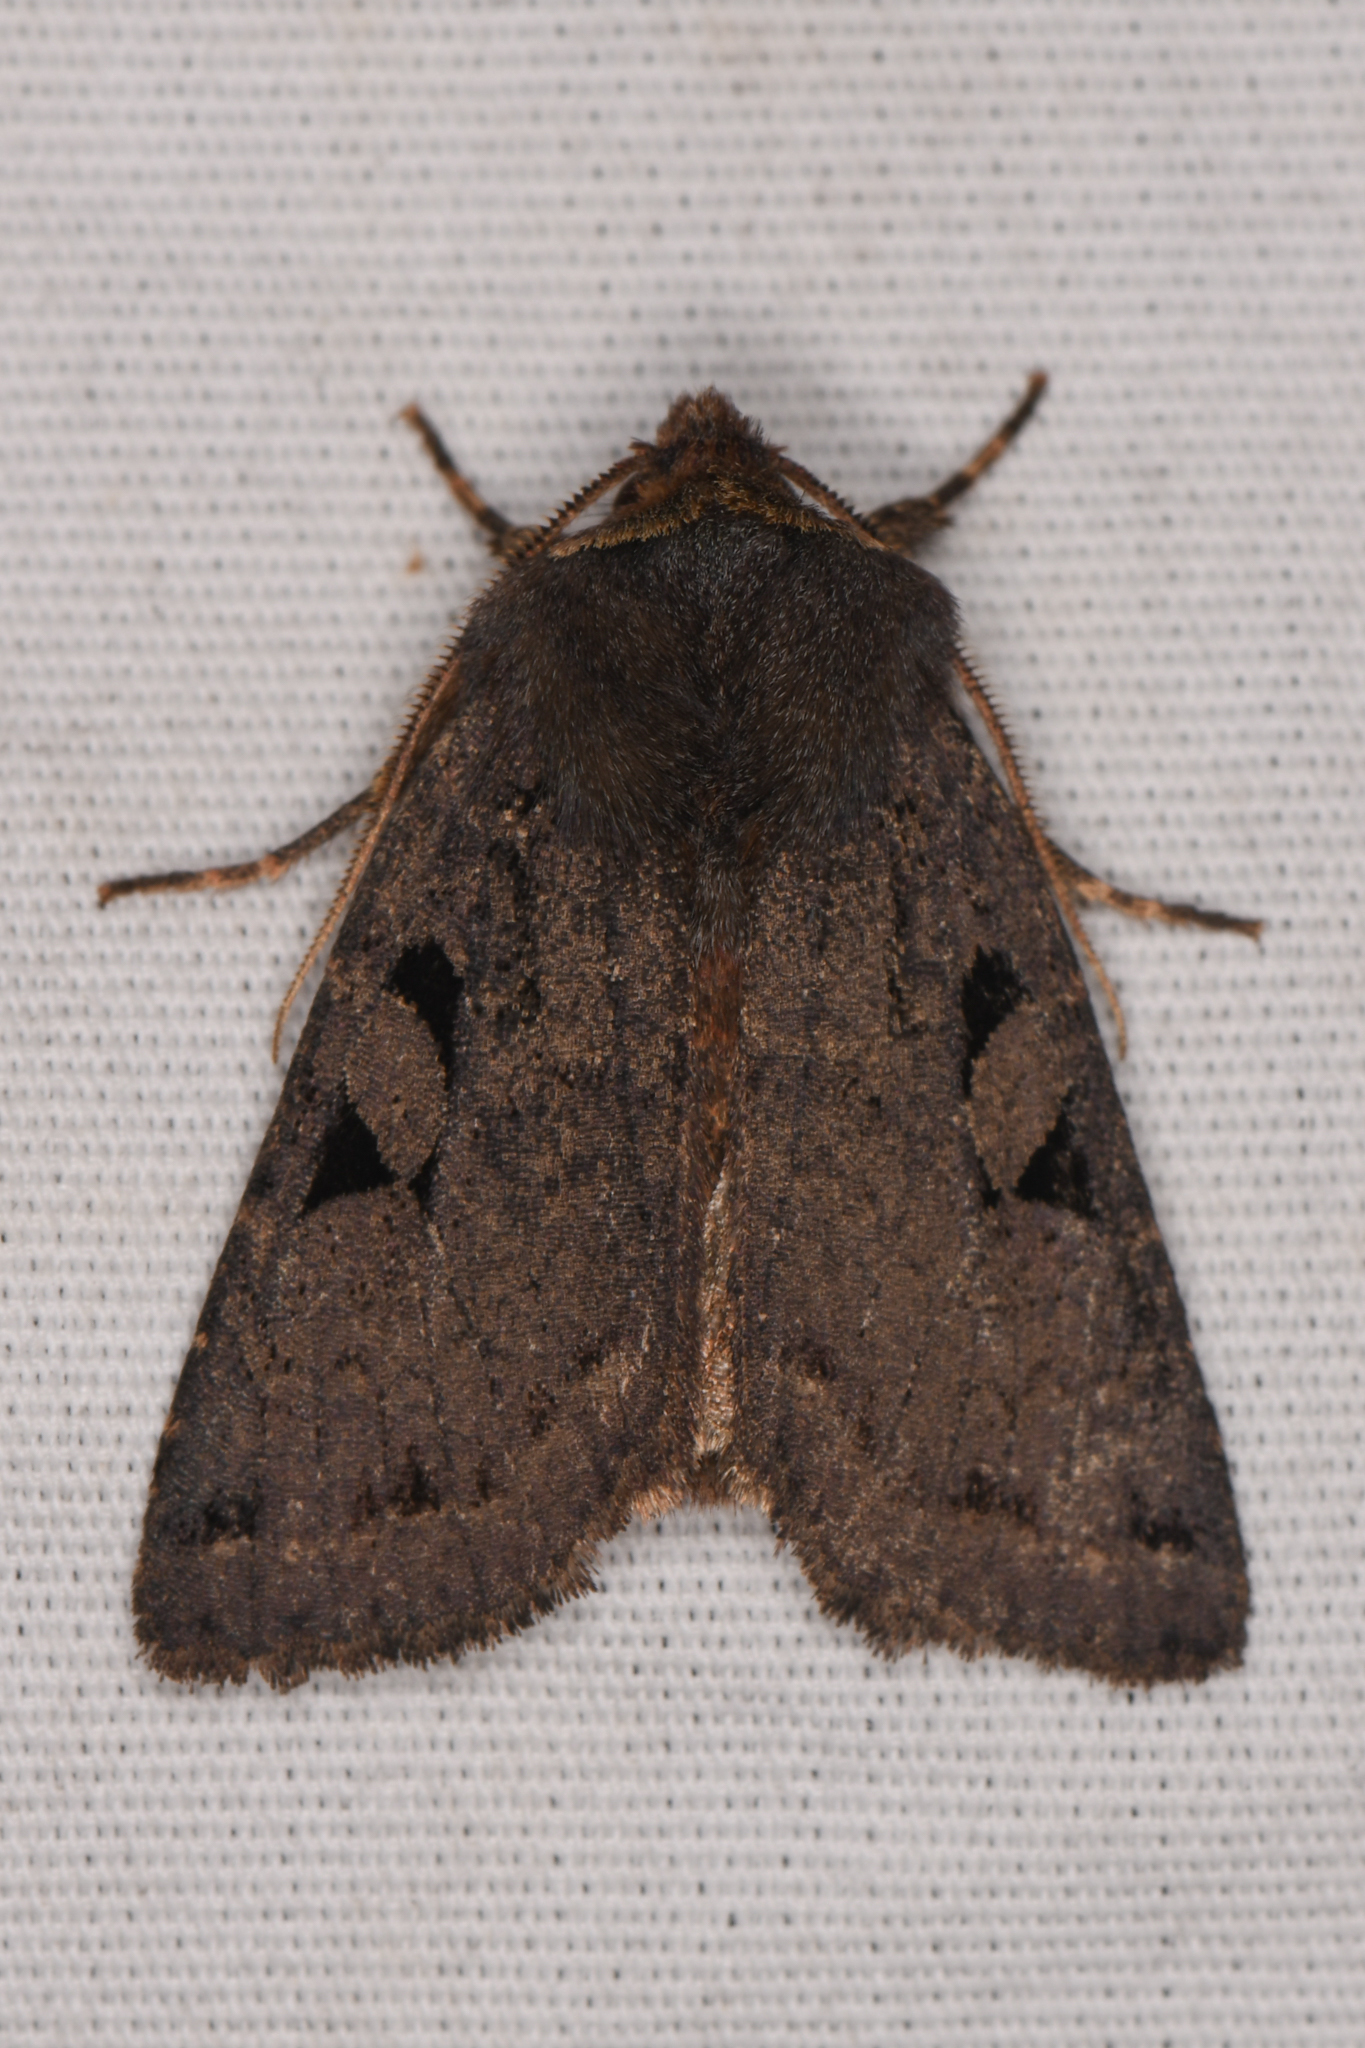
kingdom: Animalia
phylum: Arthropoda
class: Insecta
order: Lepidoptera
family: Noctuidae
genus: Orthosia
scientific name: Orthosia praeses
